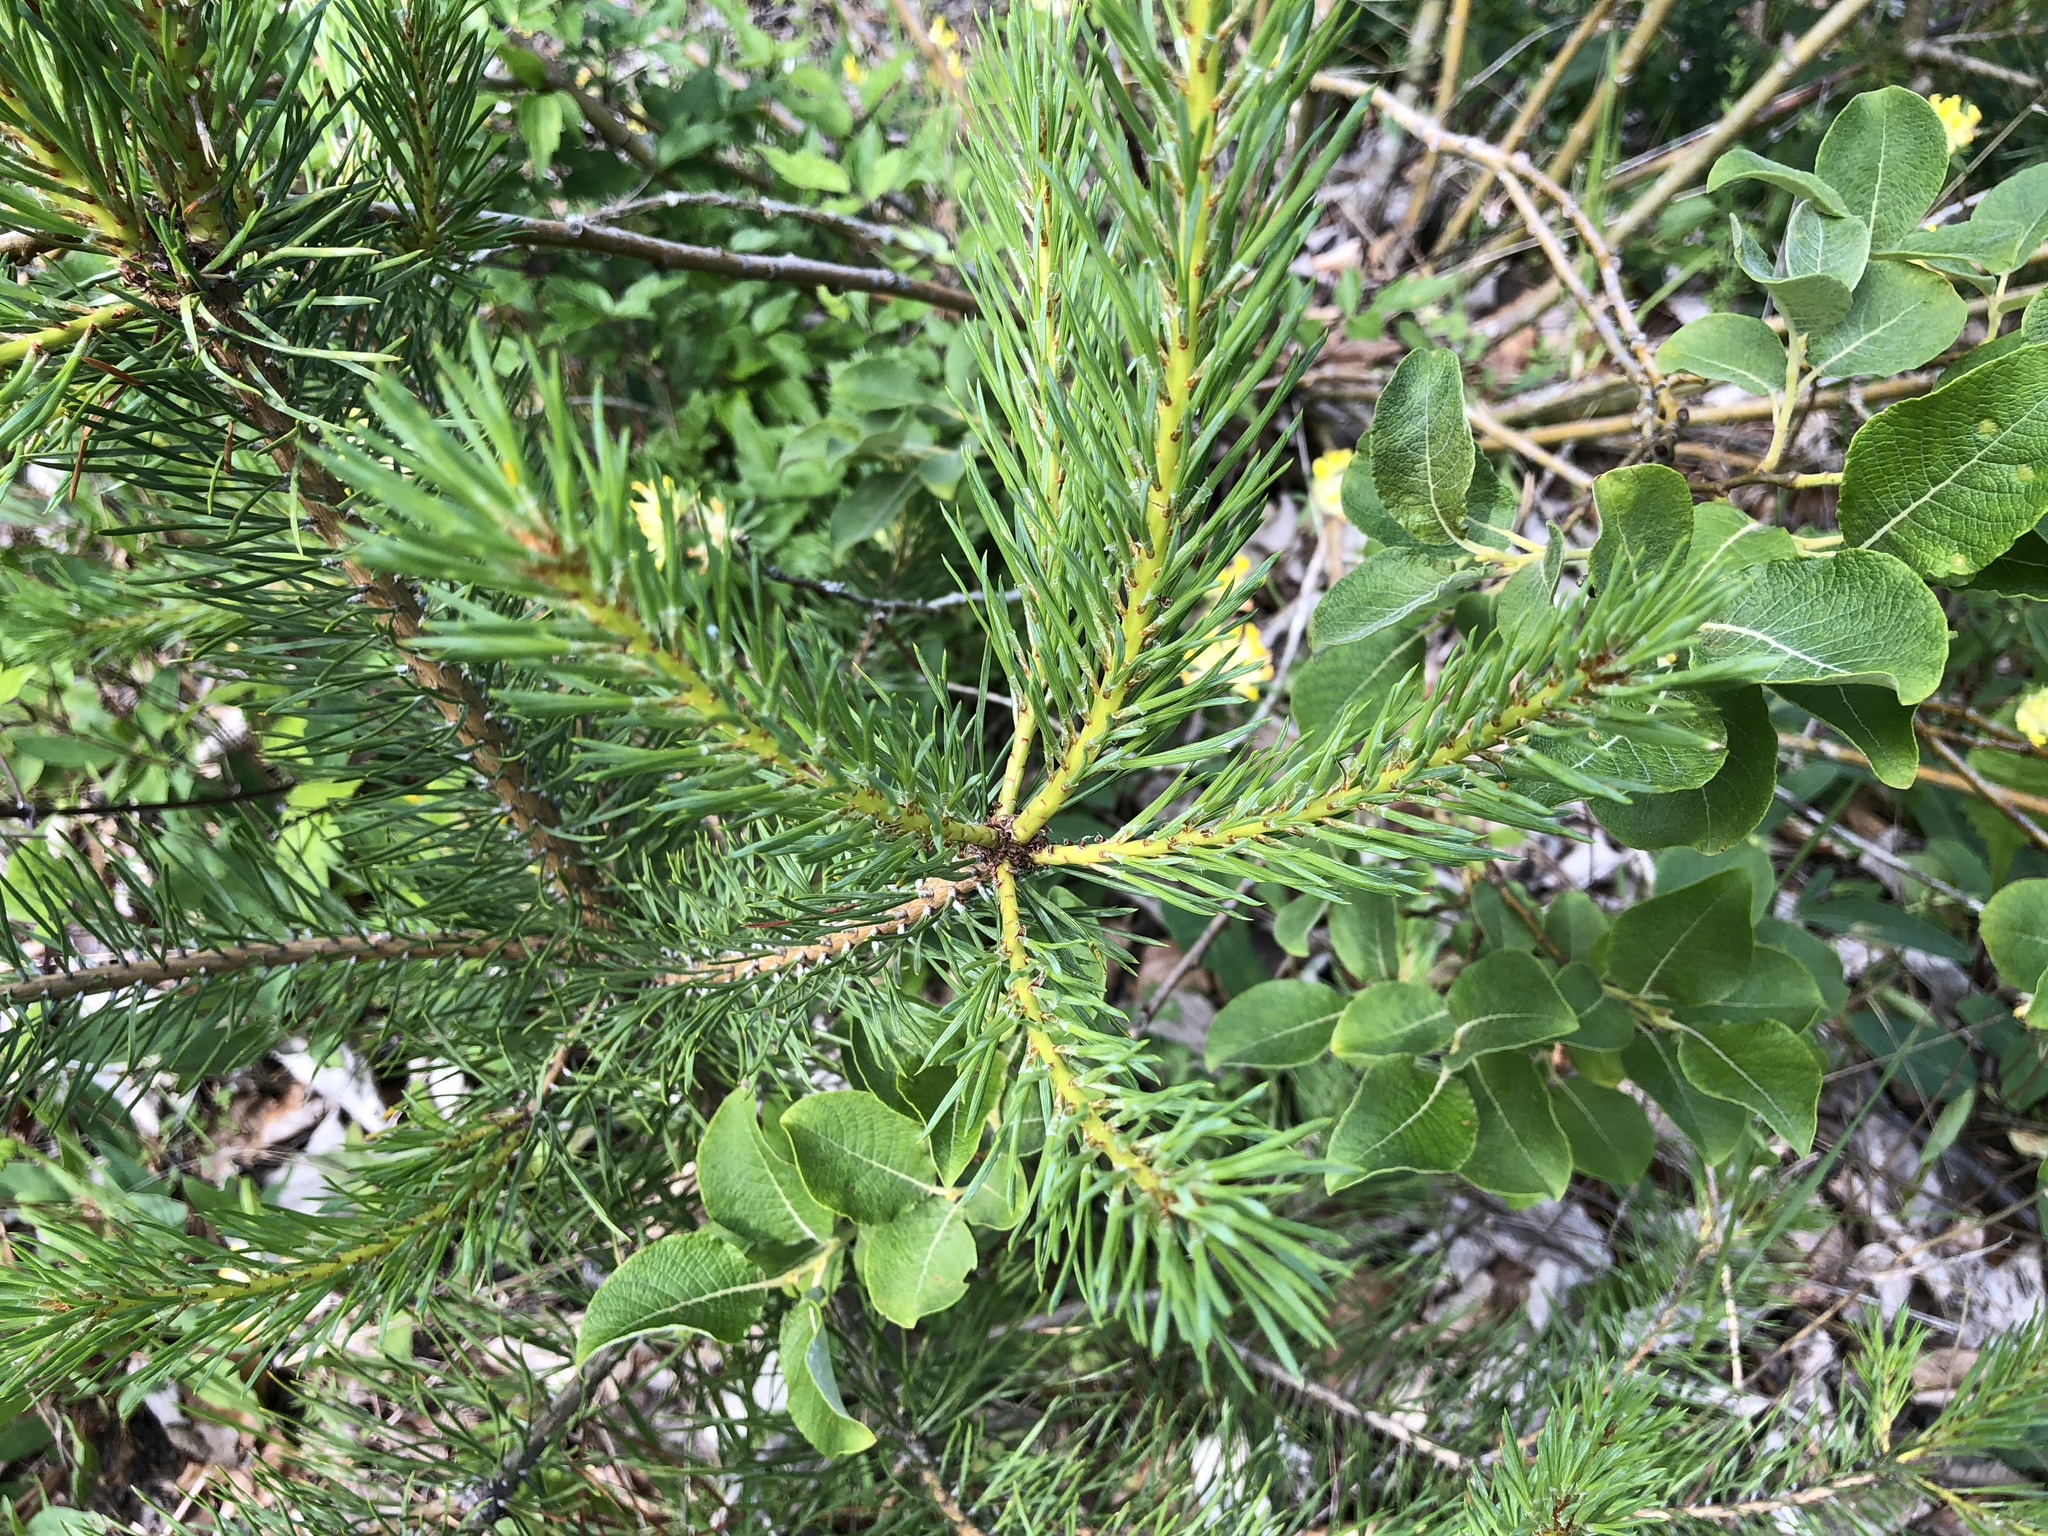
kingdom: Plantae
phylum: Tracheophyta
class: Pinopsida
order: Pinales
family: Pinaceae
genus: Pinus
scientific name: Pinus sylvestris
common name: Scots pine
